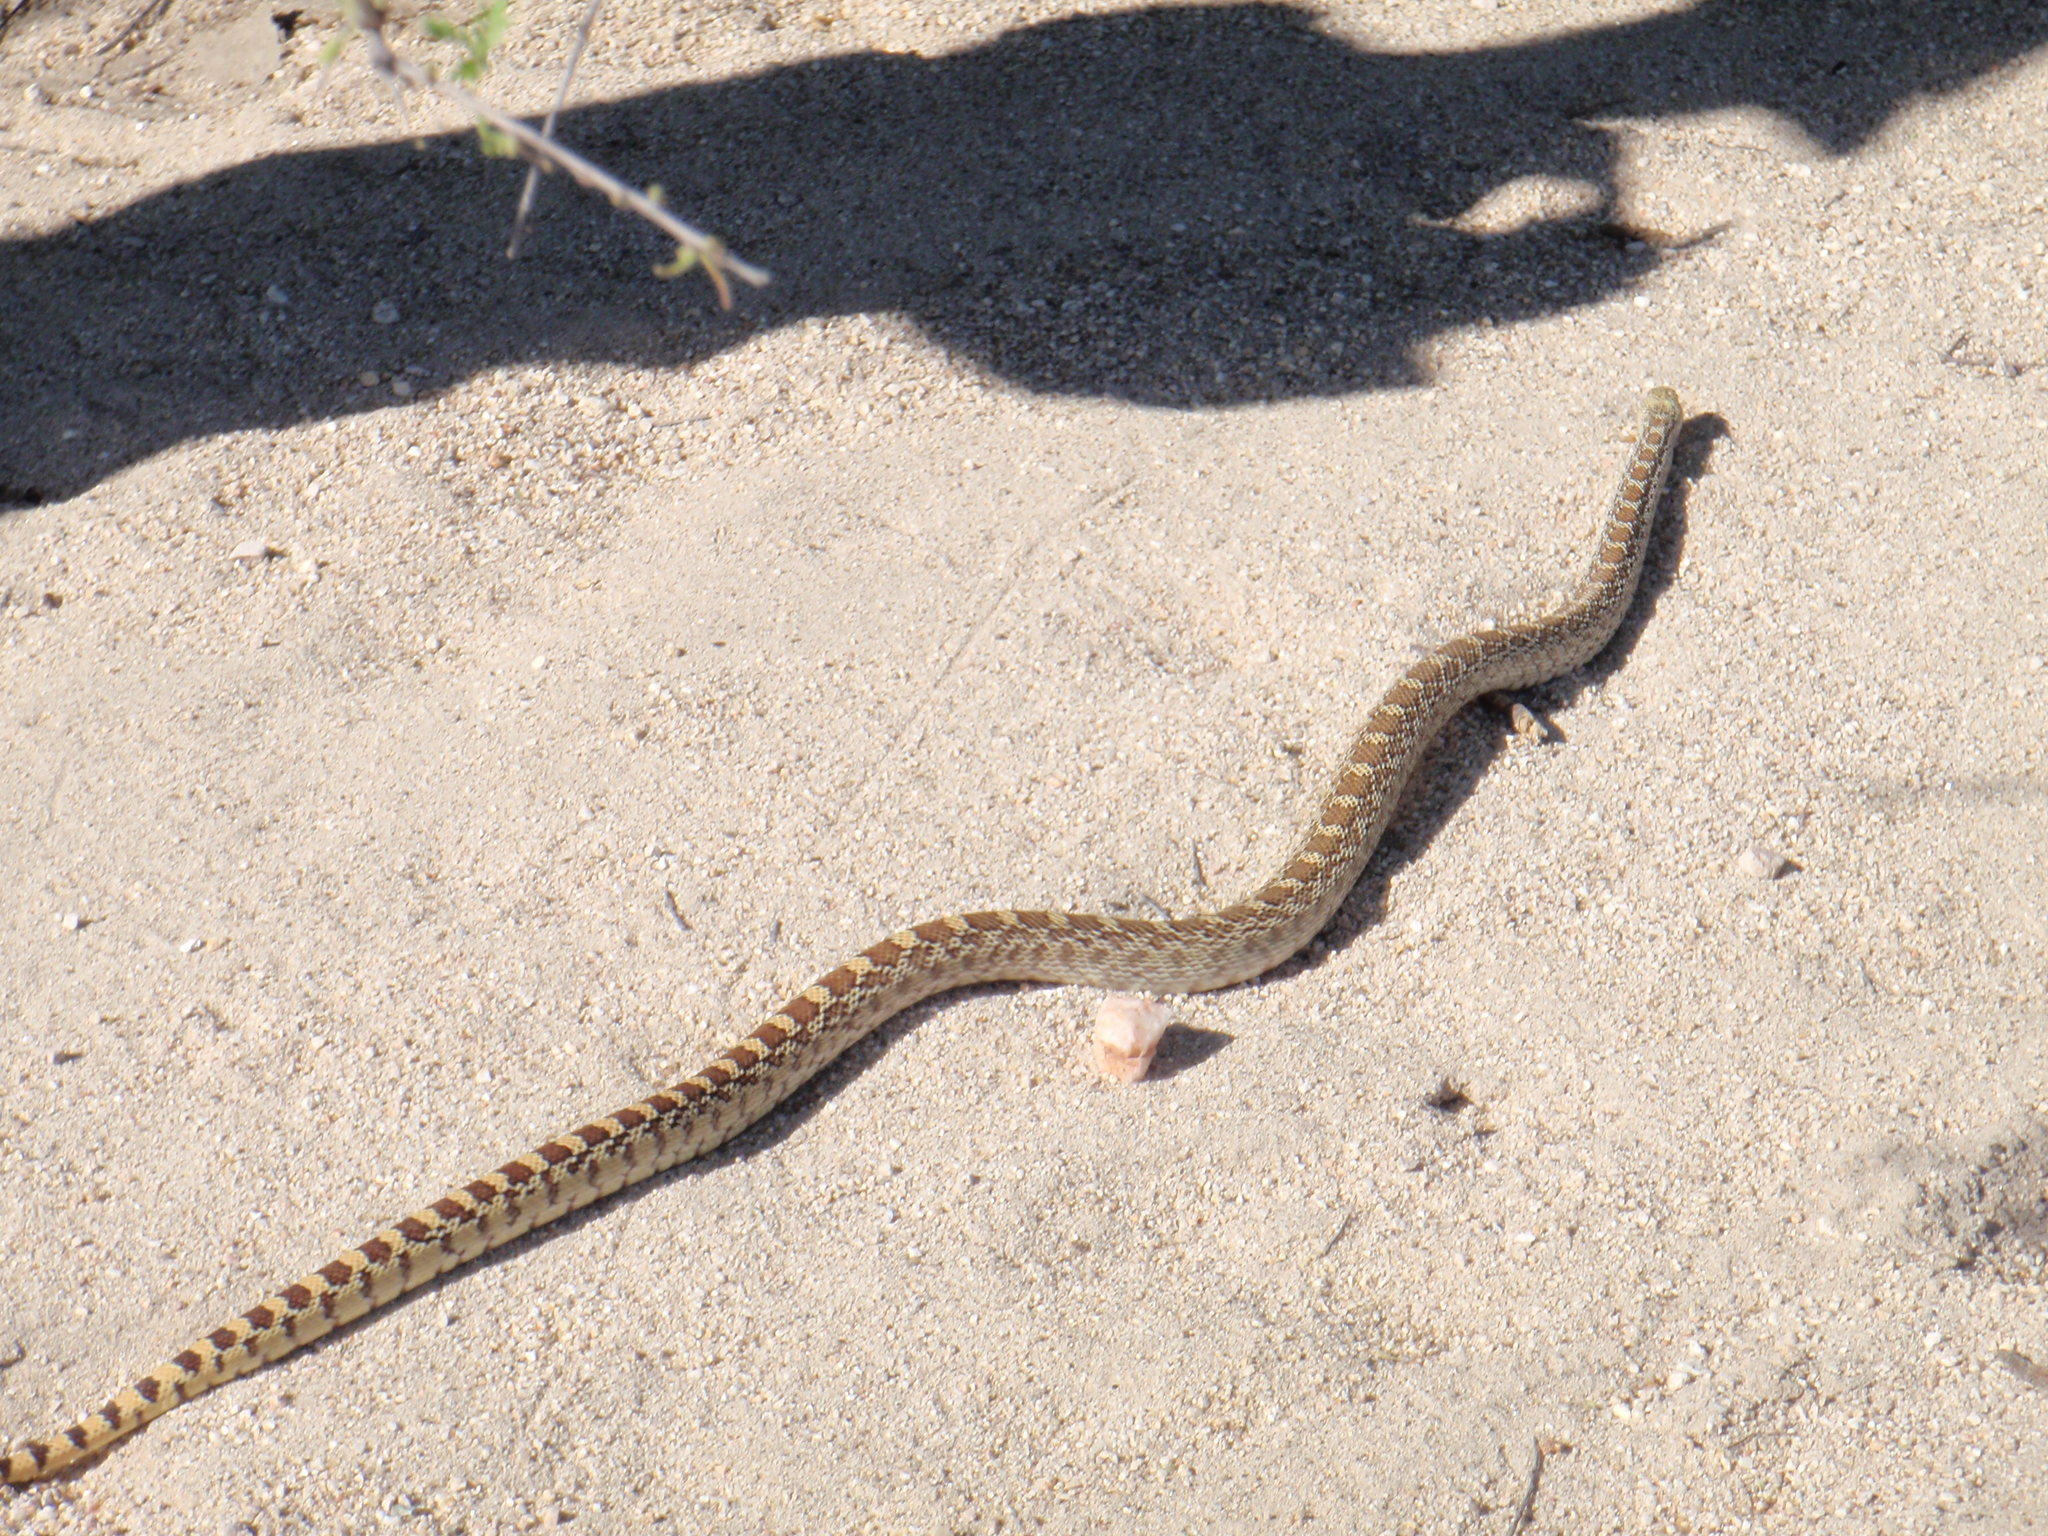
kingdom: Animalia
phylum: Chordata
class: Squamata
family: Colubridae
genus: Pituophis
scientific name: Pituophis catenifer
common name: Gopher snake
